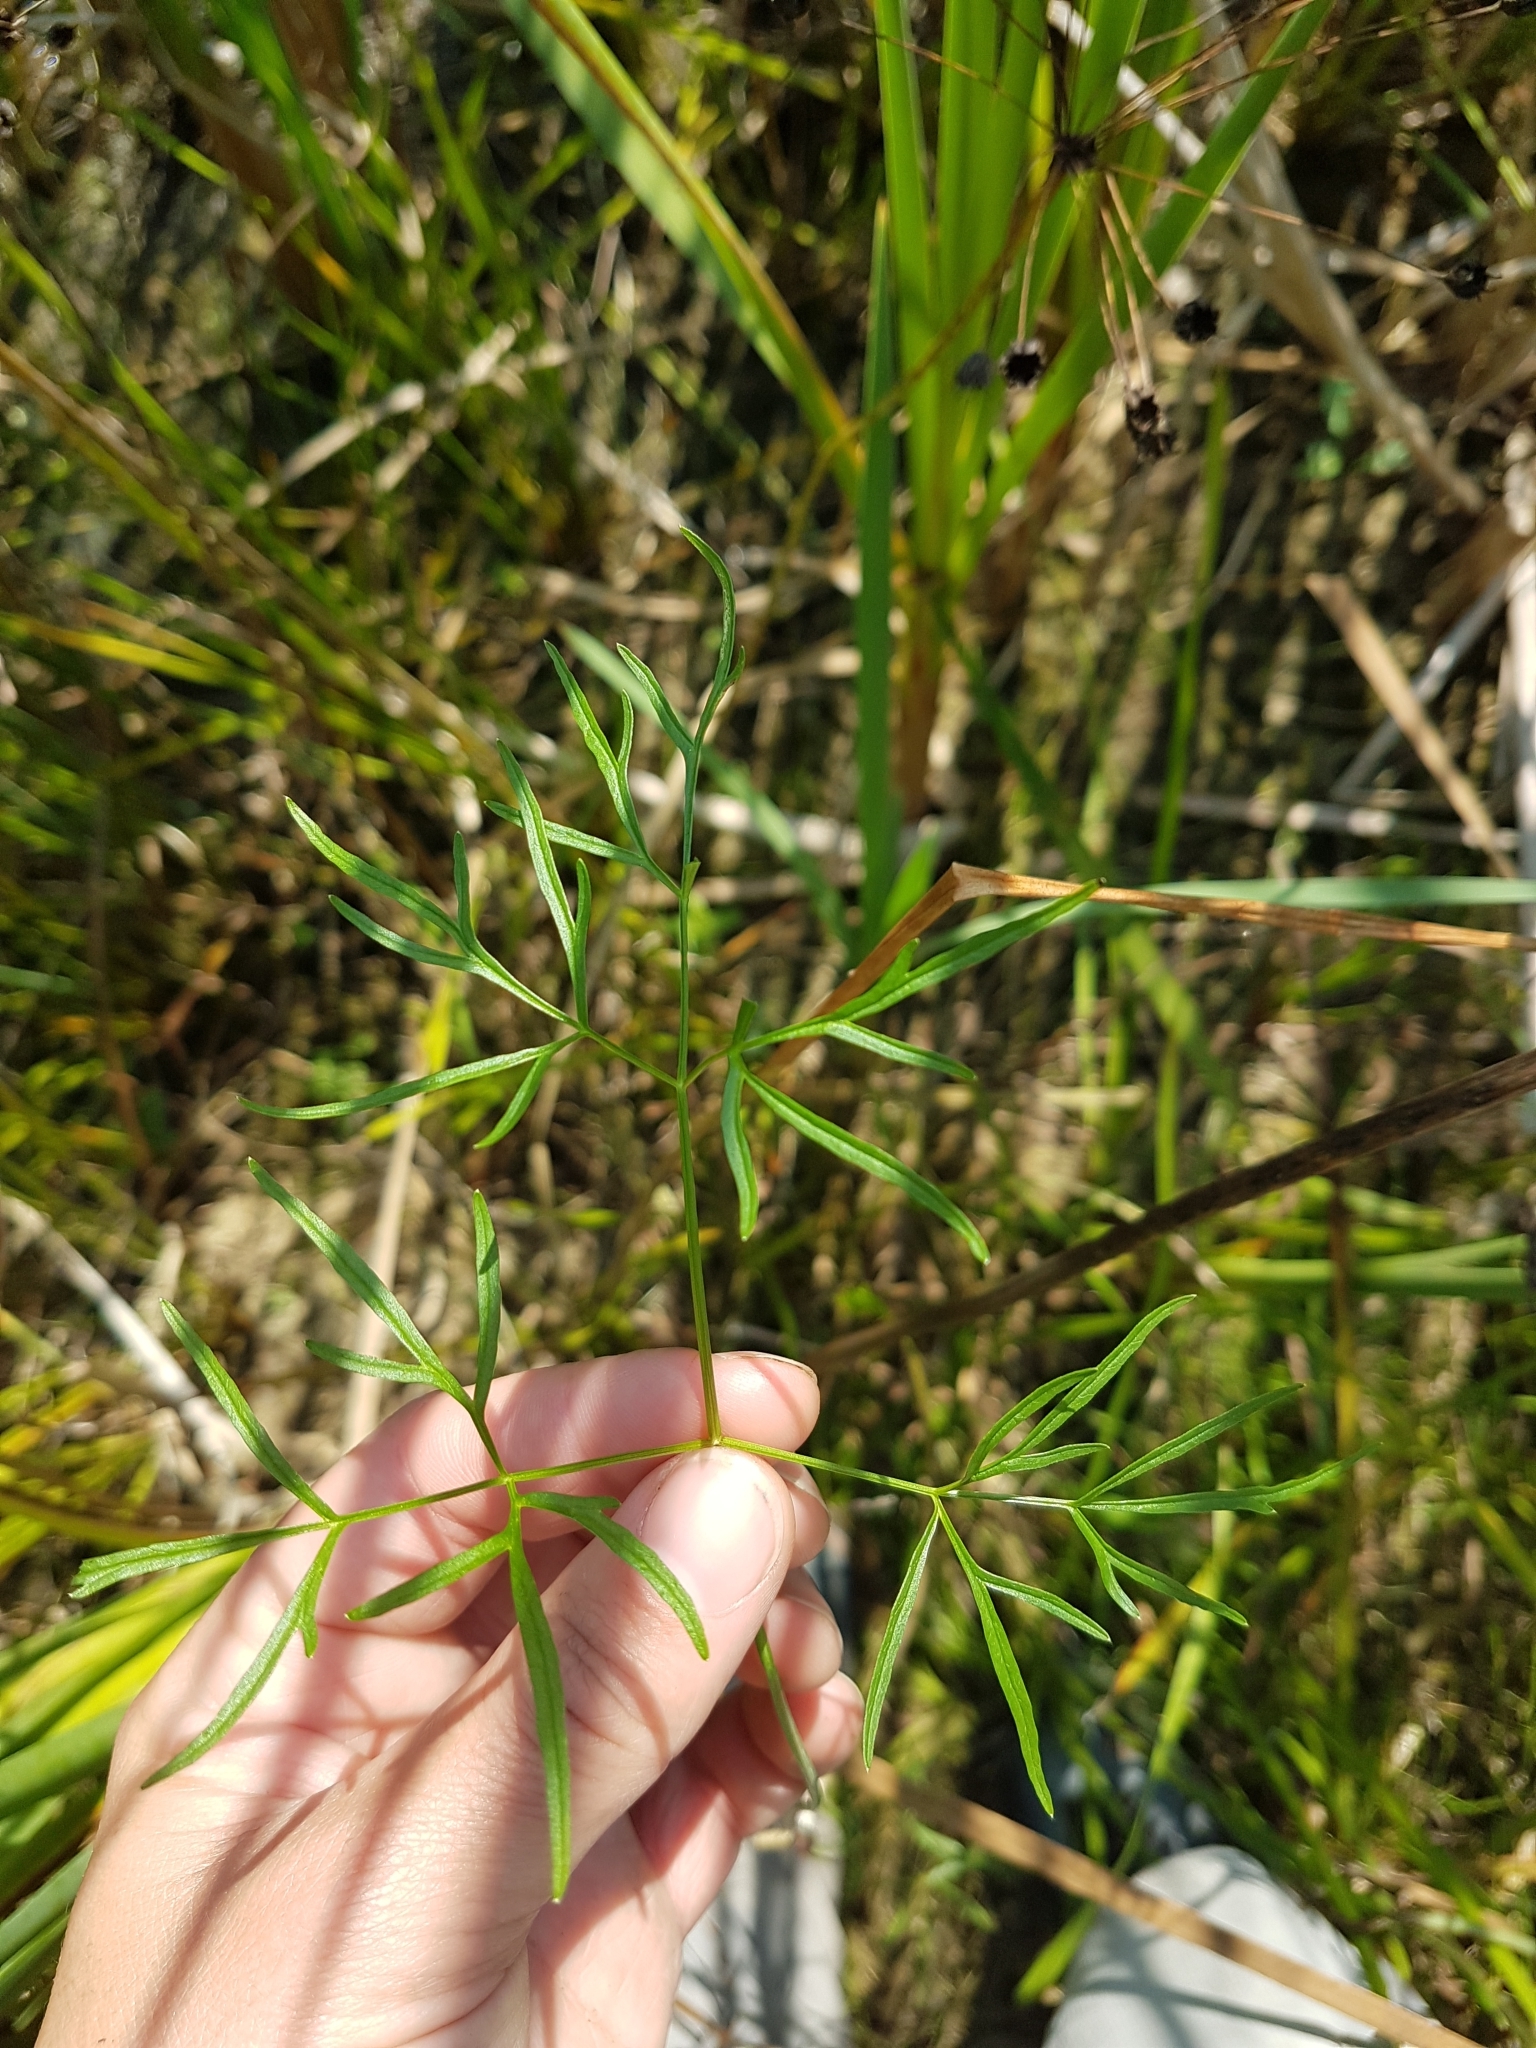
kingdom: Plantae
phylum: Tracheophyta
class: Magnoliopsida
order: Apiales
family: Apiaceae
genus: Cicuta
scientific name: Cicuta bulbifera
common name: Bulb-bearing water-hemlock
